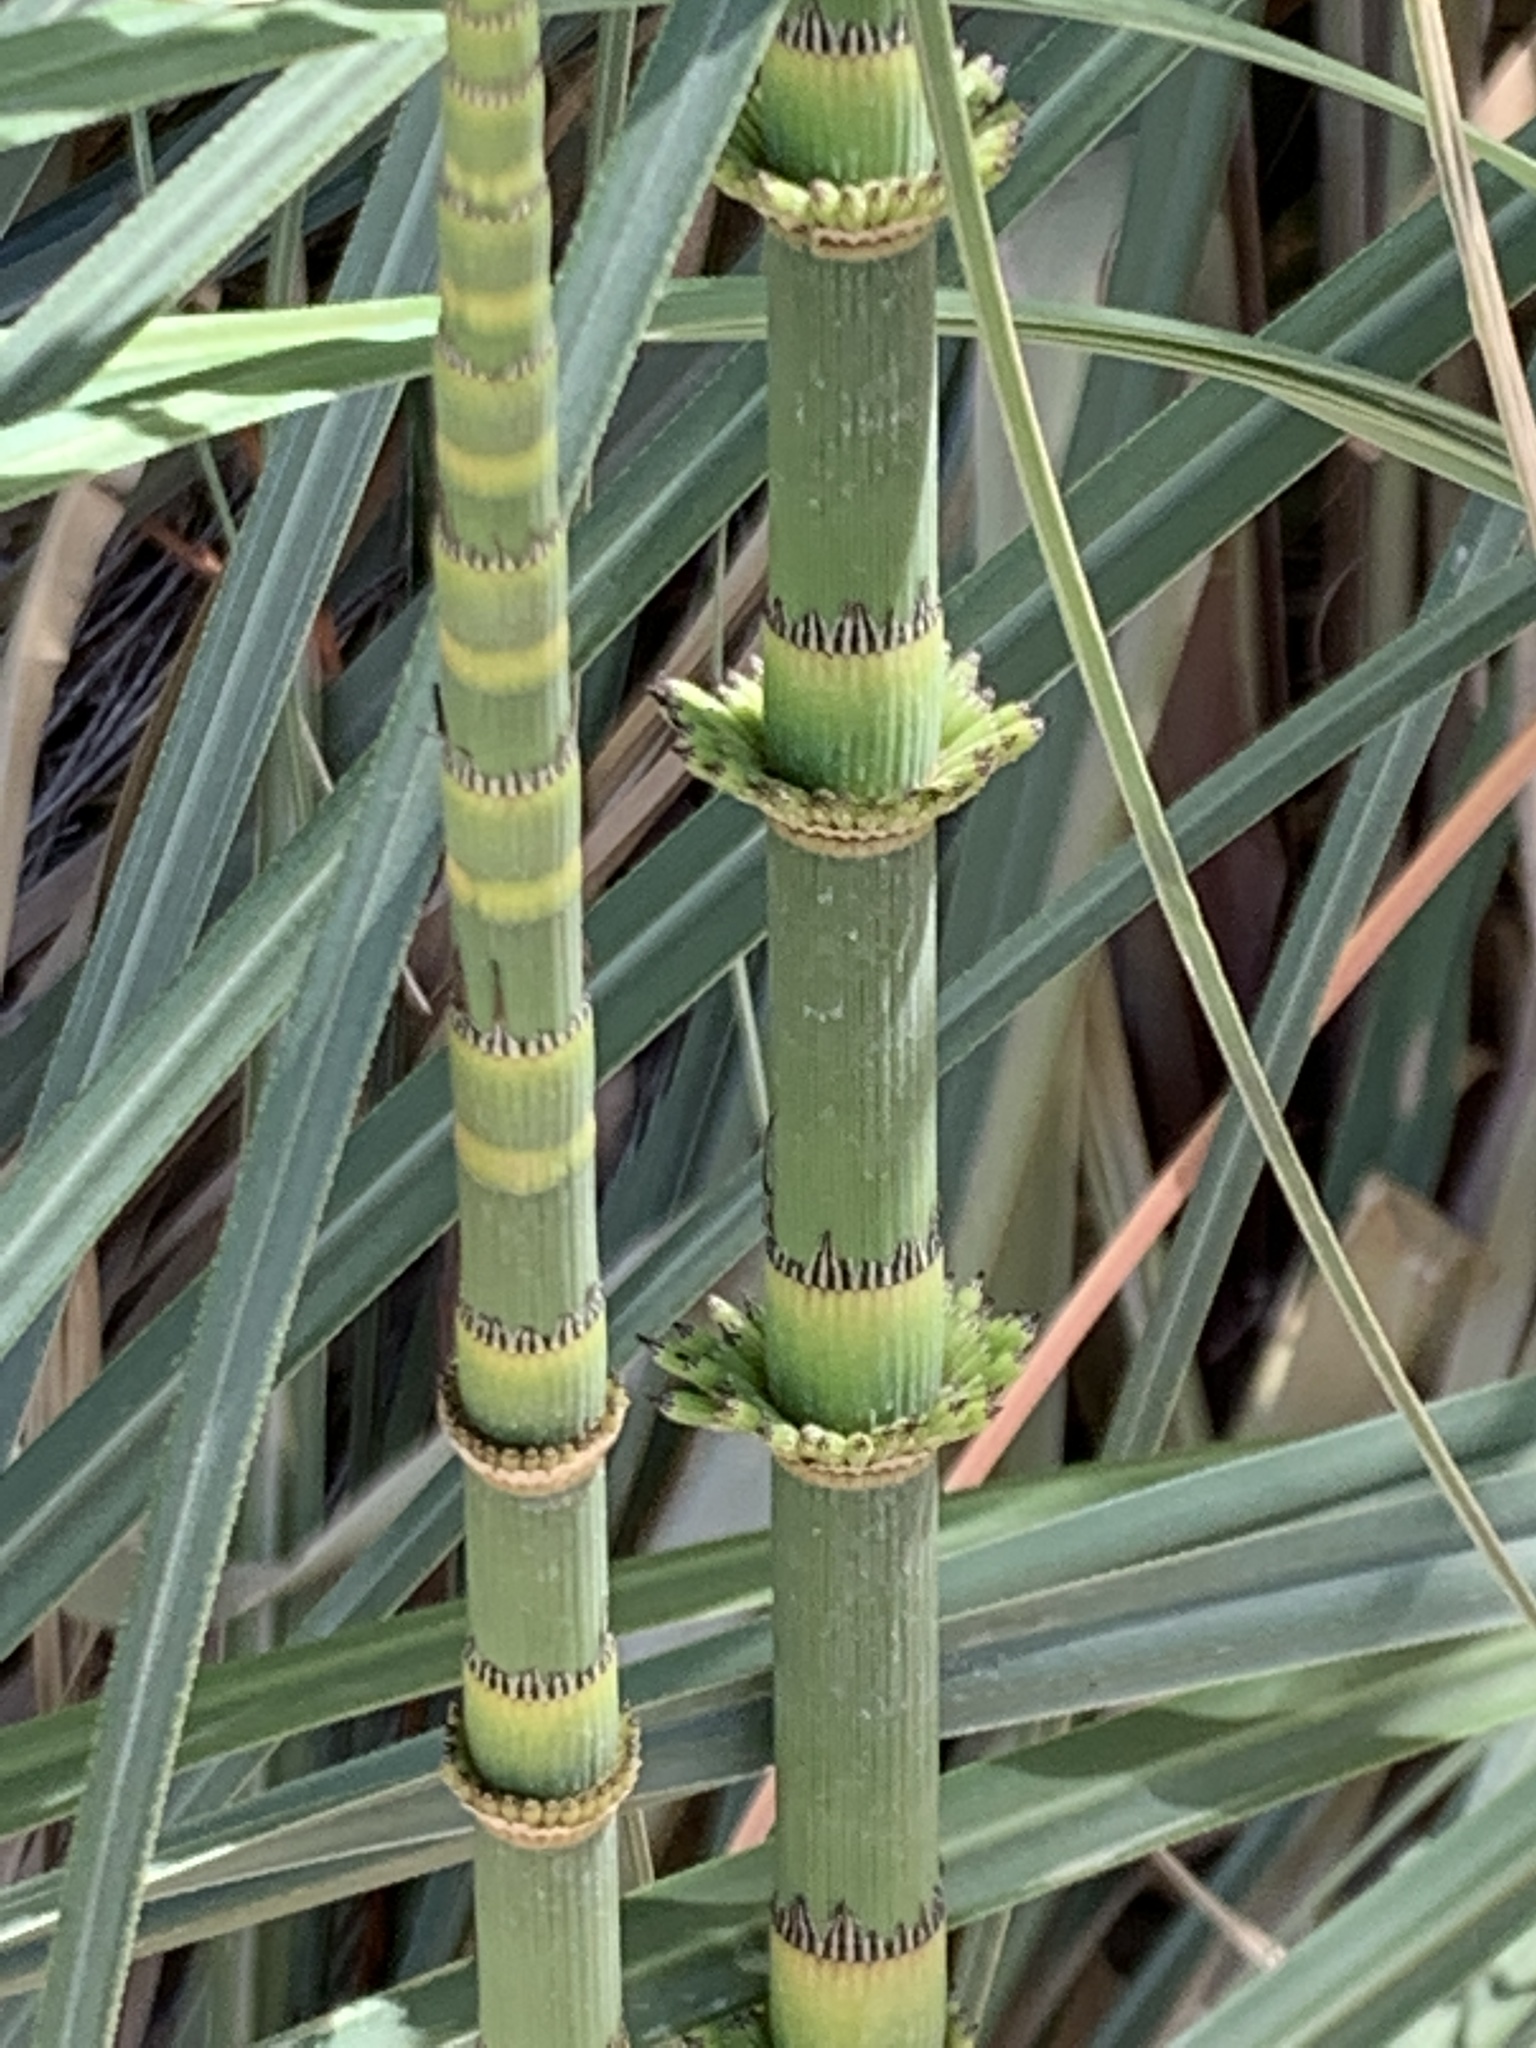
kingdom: Plantae
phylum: Tracheophyta
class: Polypodiopsida
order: Equisetales
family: Equisetaceae
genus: Equisetum
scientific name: Equisetum giganteum
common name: Giant horsetail
